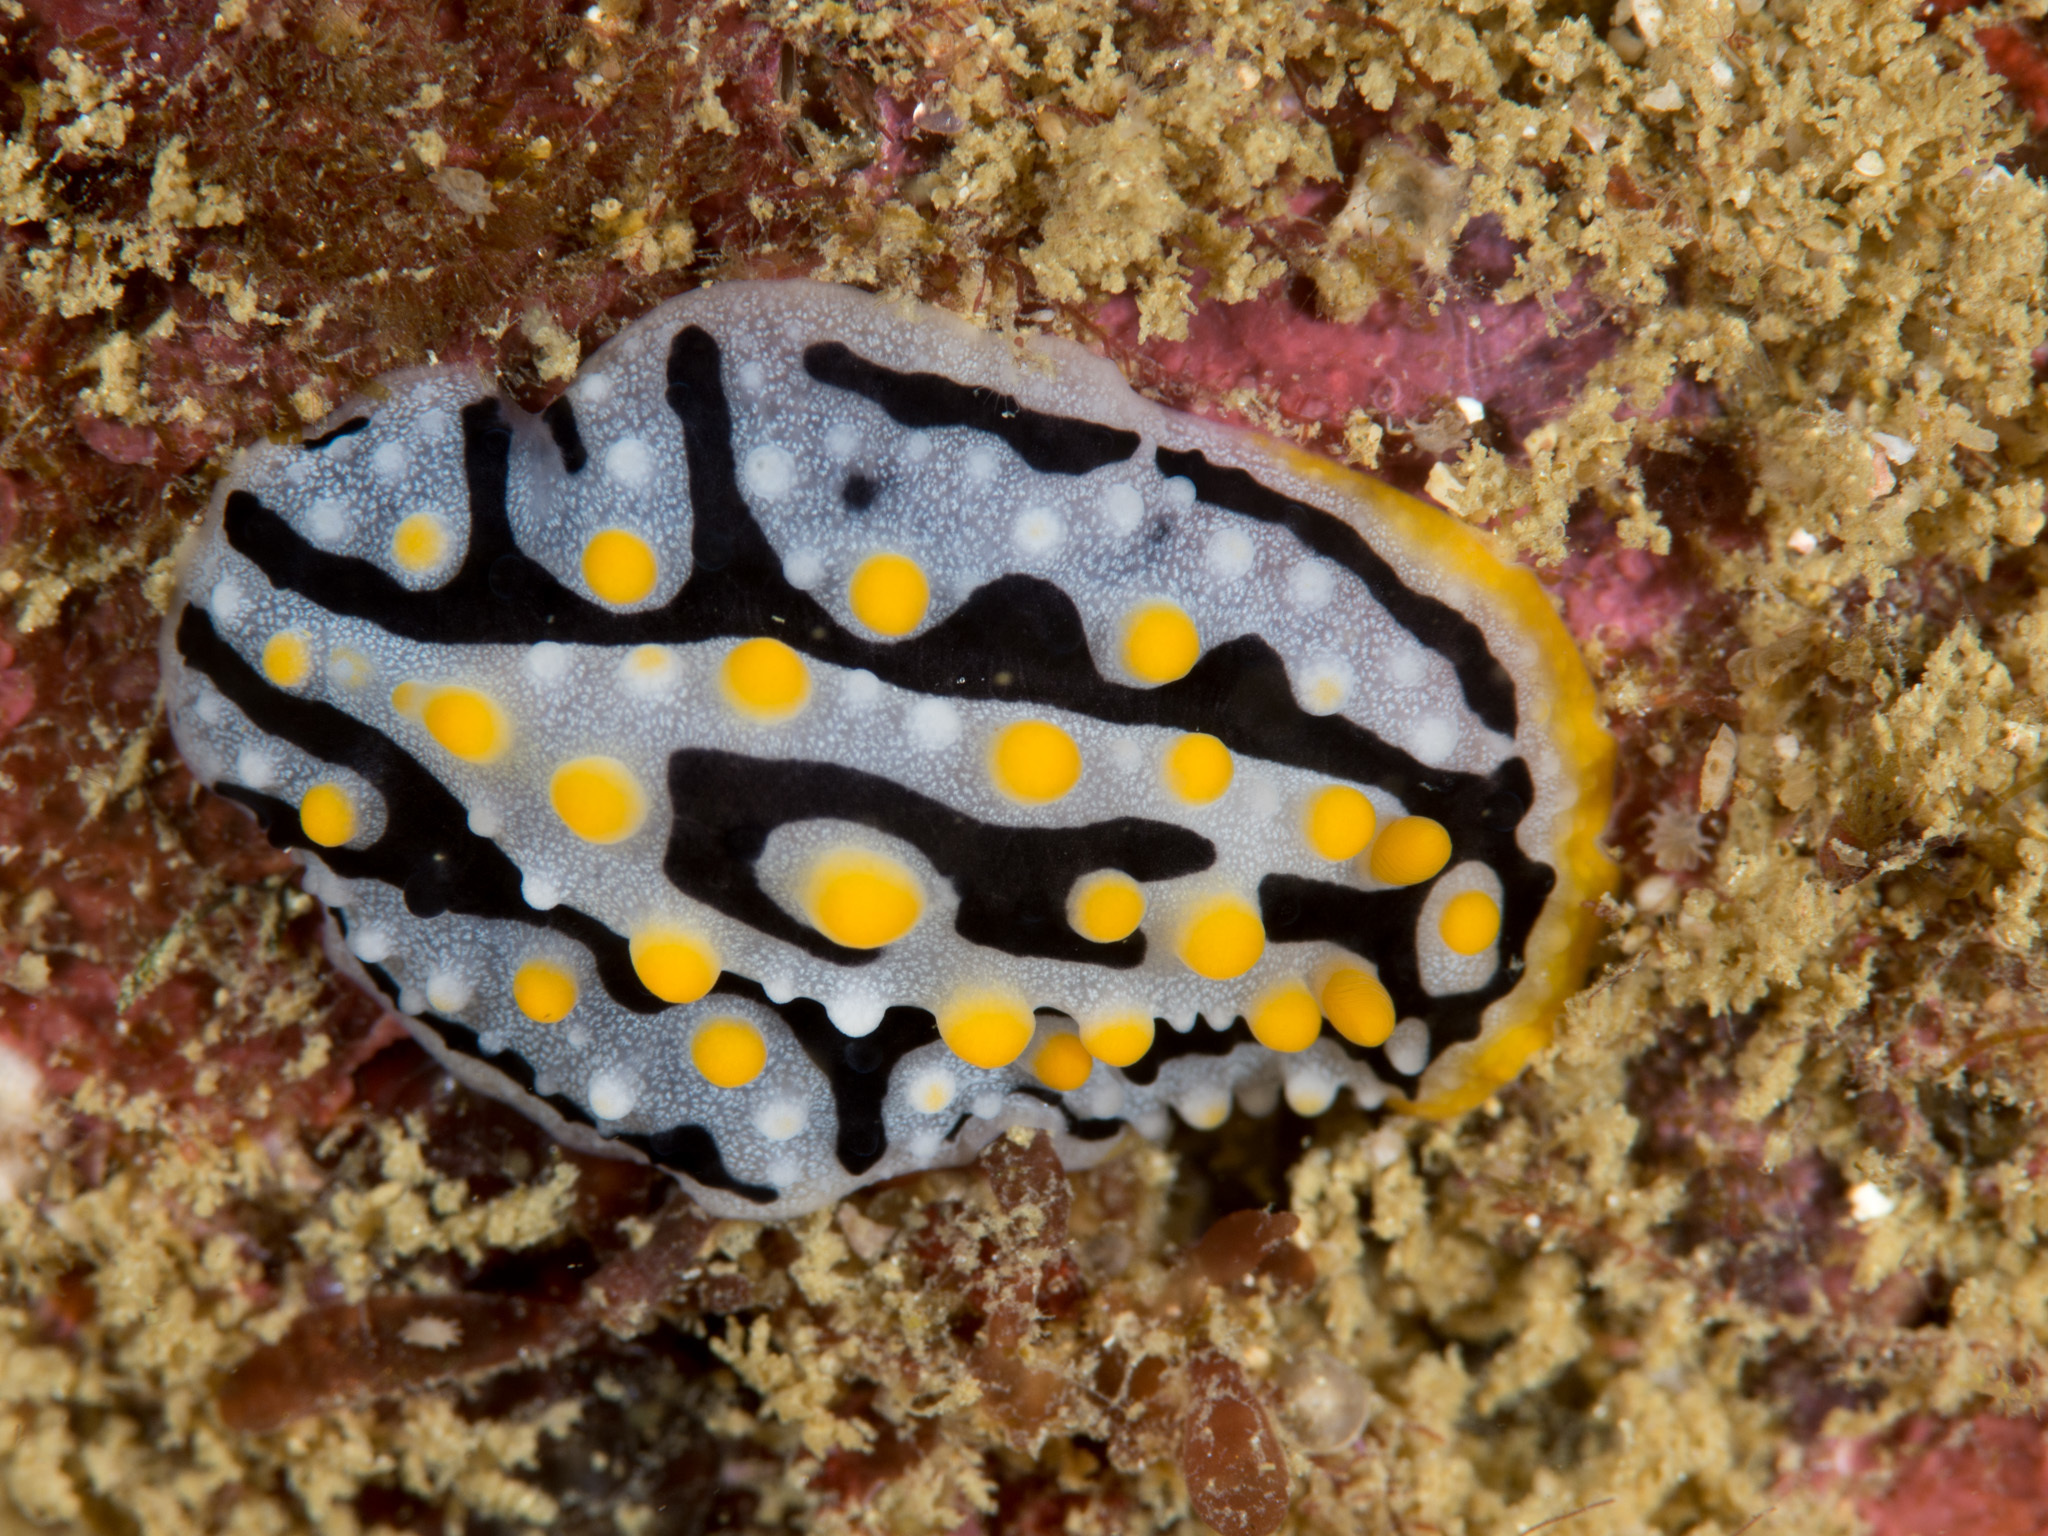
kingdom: Animalia
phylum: Mollusca
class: Gastropoda
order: Nudibranchia
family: Phyllidiidae
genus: Phyllidia
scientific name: Phyllidia exquisita
